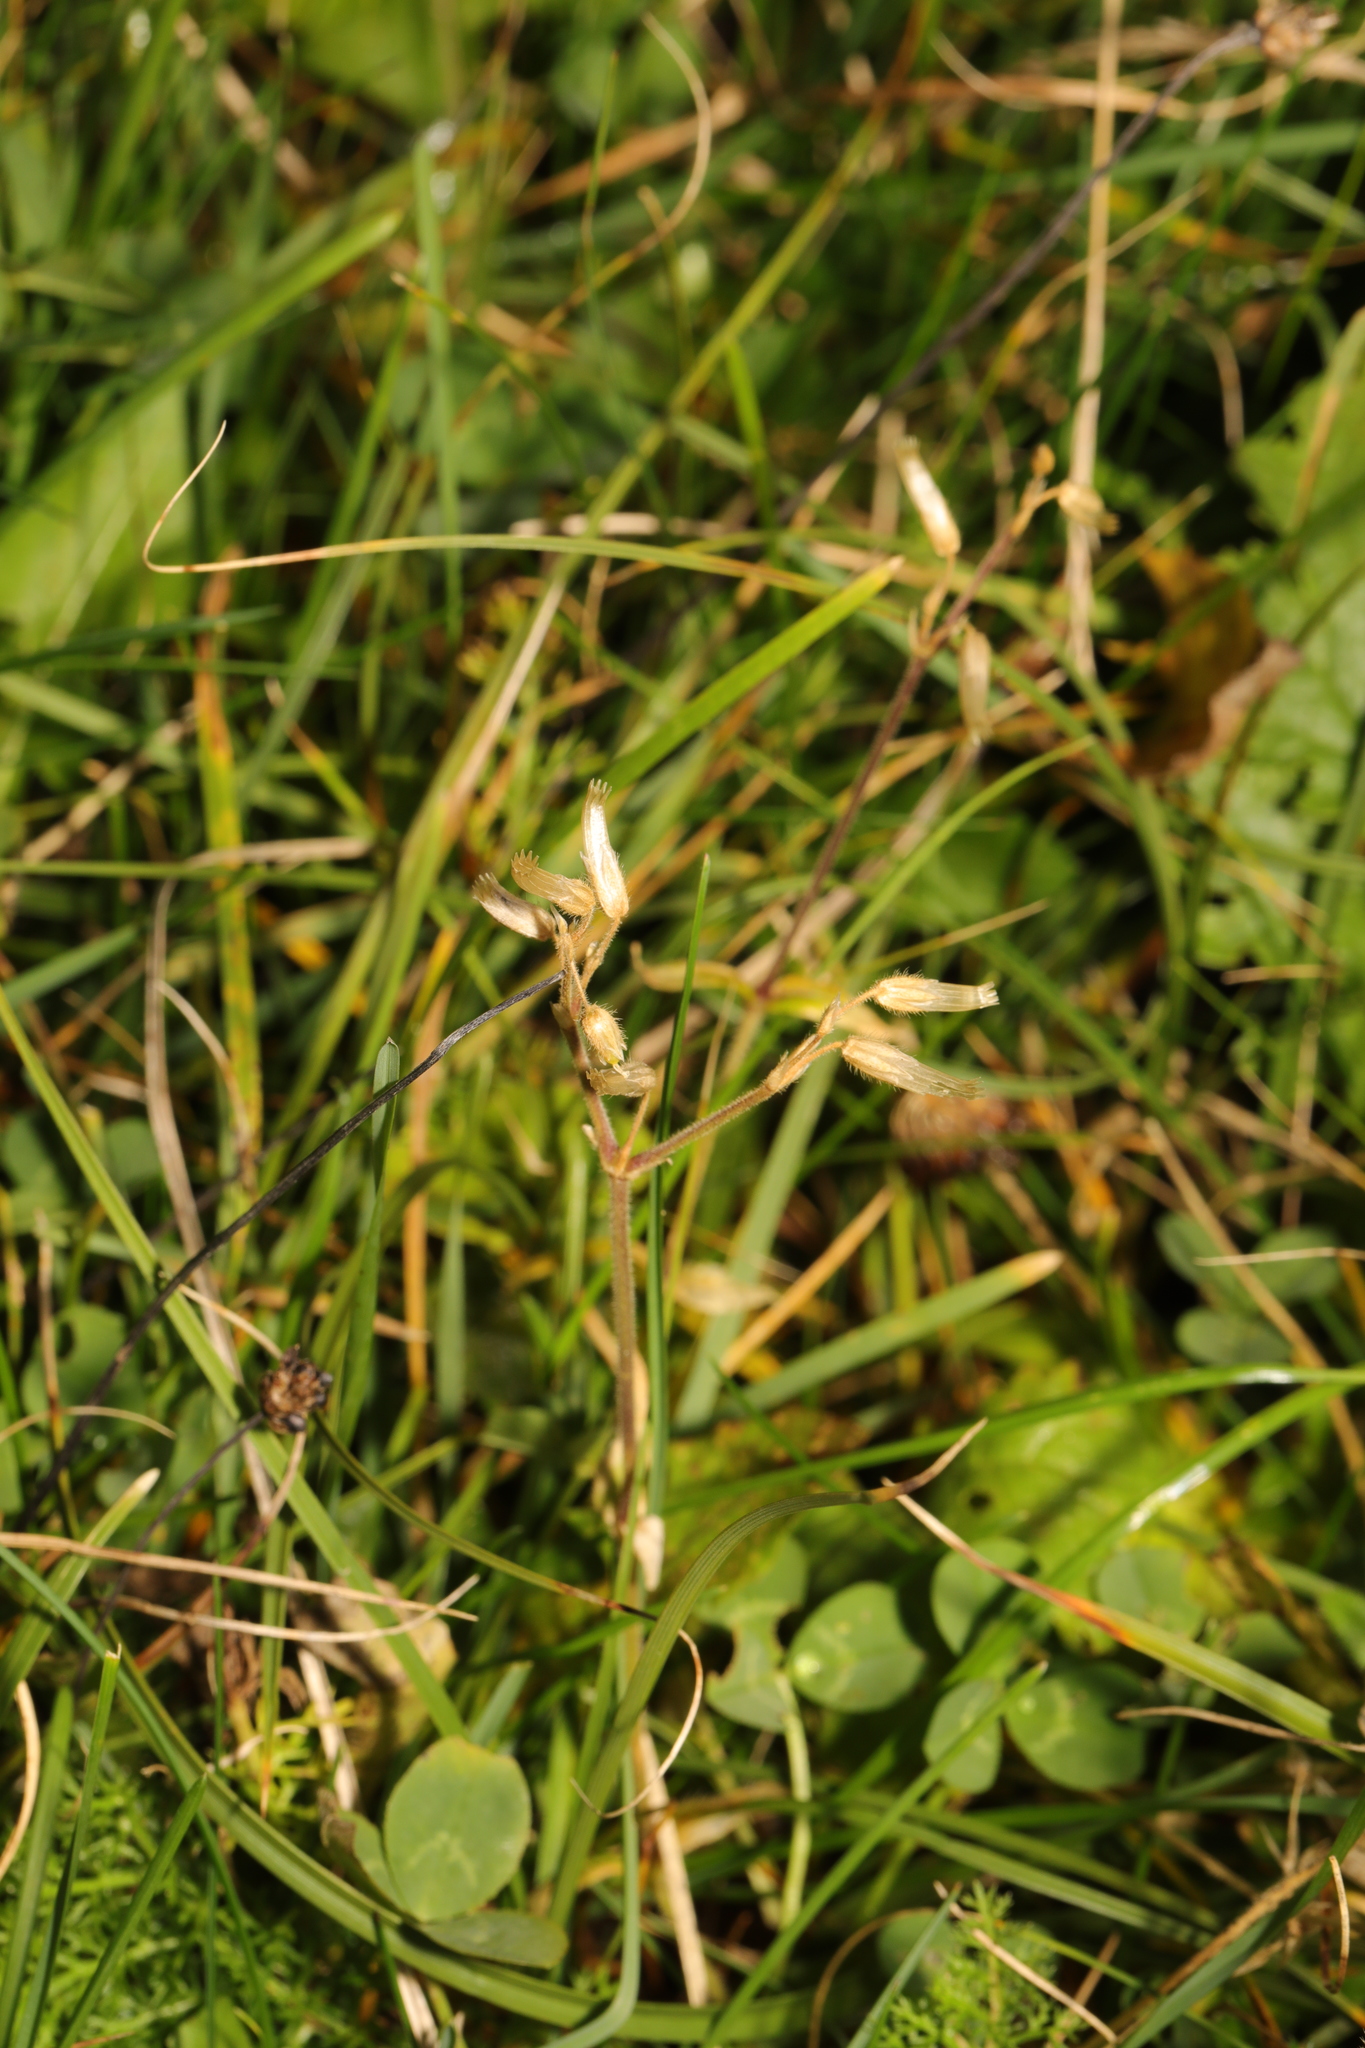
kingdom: Plantae
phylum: Tracheophyta
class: Magnoliopsida
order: Caryophyllales
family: Caryophyllaceae
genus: Cerastium
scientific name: Cerastium fontanum
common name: Common mouse-ear
